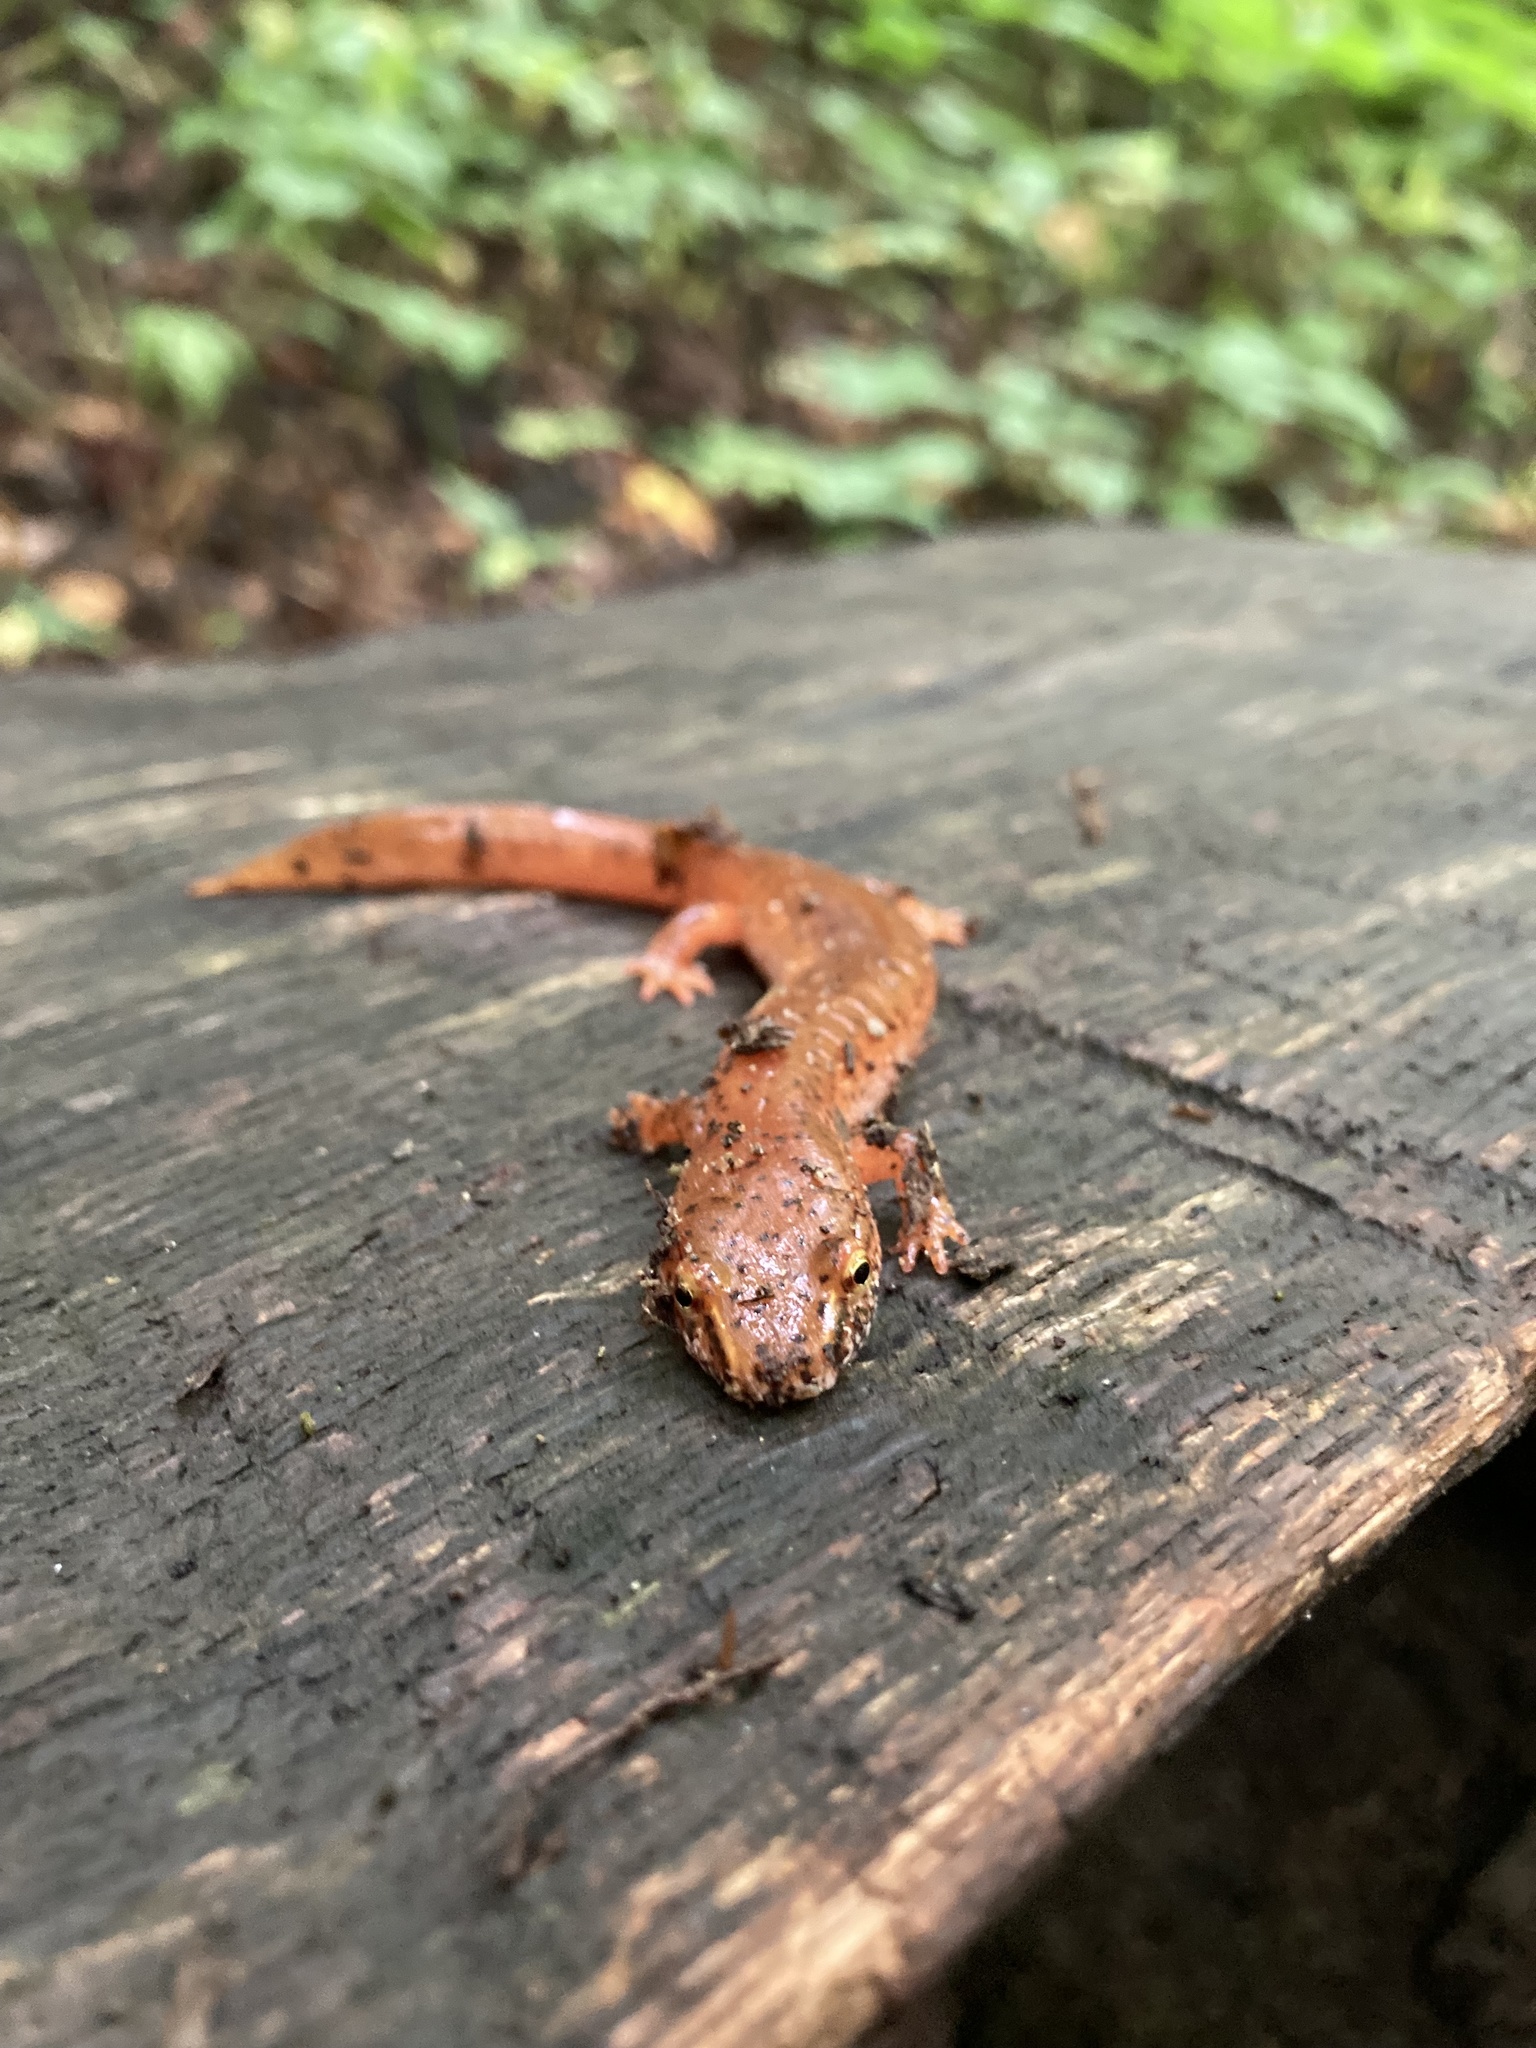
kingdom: Animalia
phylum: Chordata
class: Amphibia
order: Caudata
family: Plethodontidae
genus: Gyrinophilus
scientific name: Gyrinophilus porphyriticus
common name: Spring salamander
